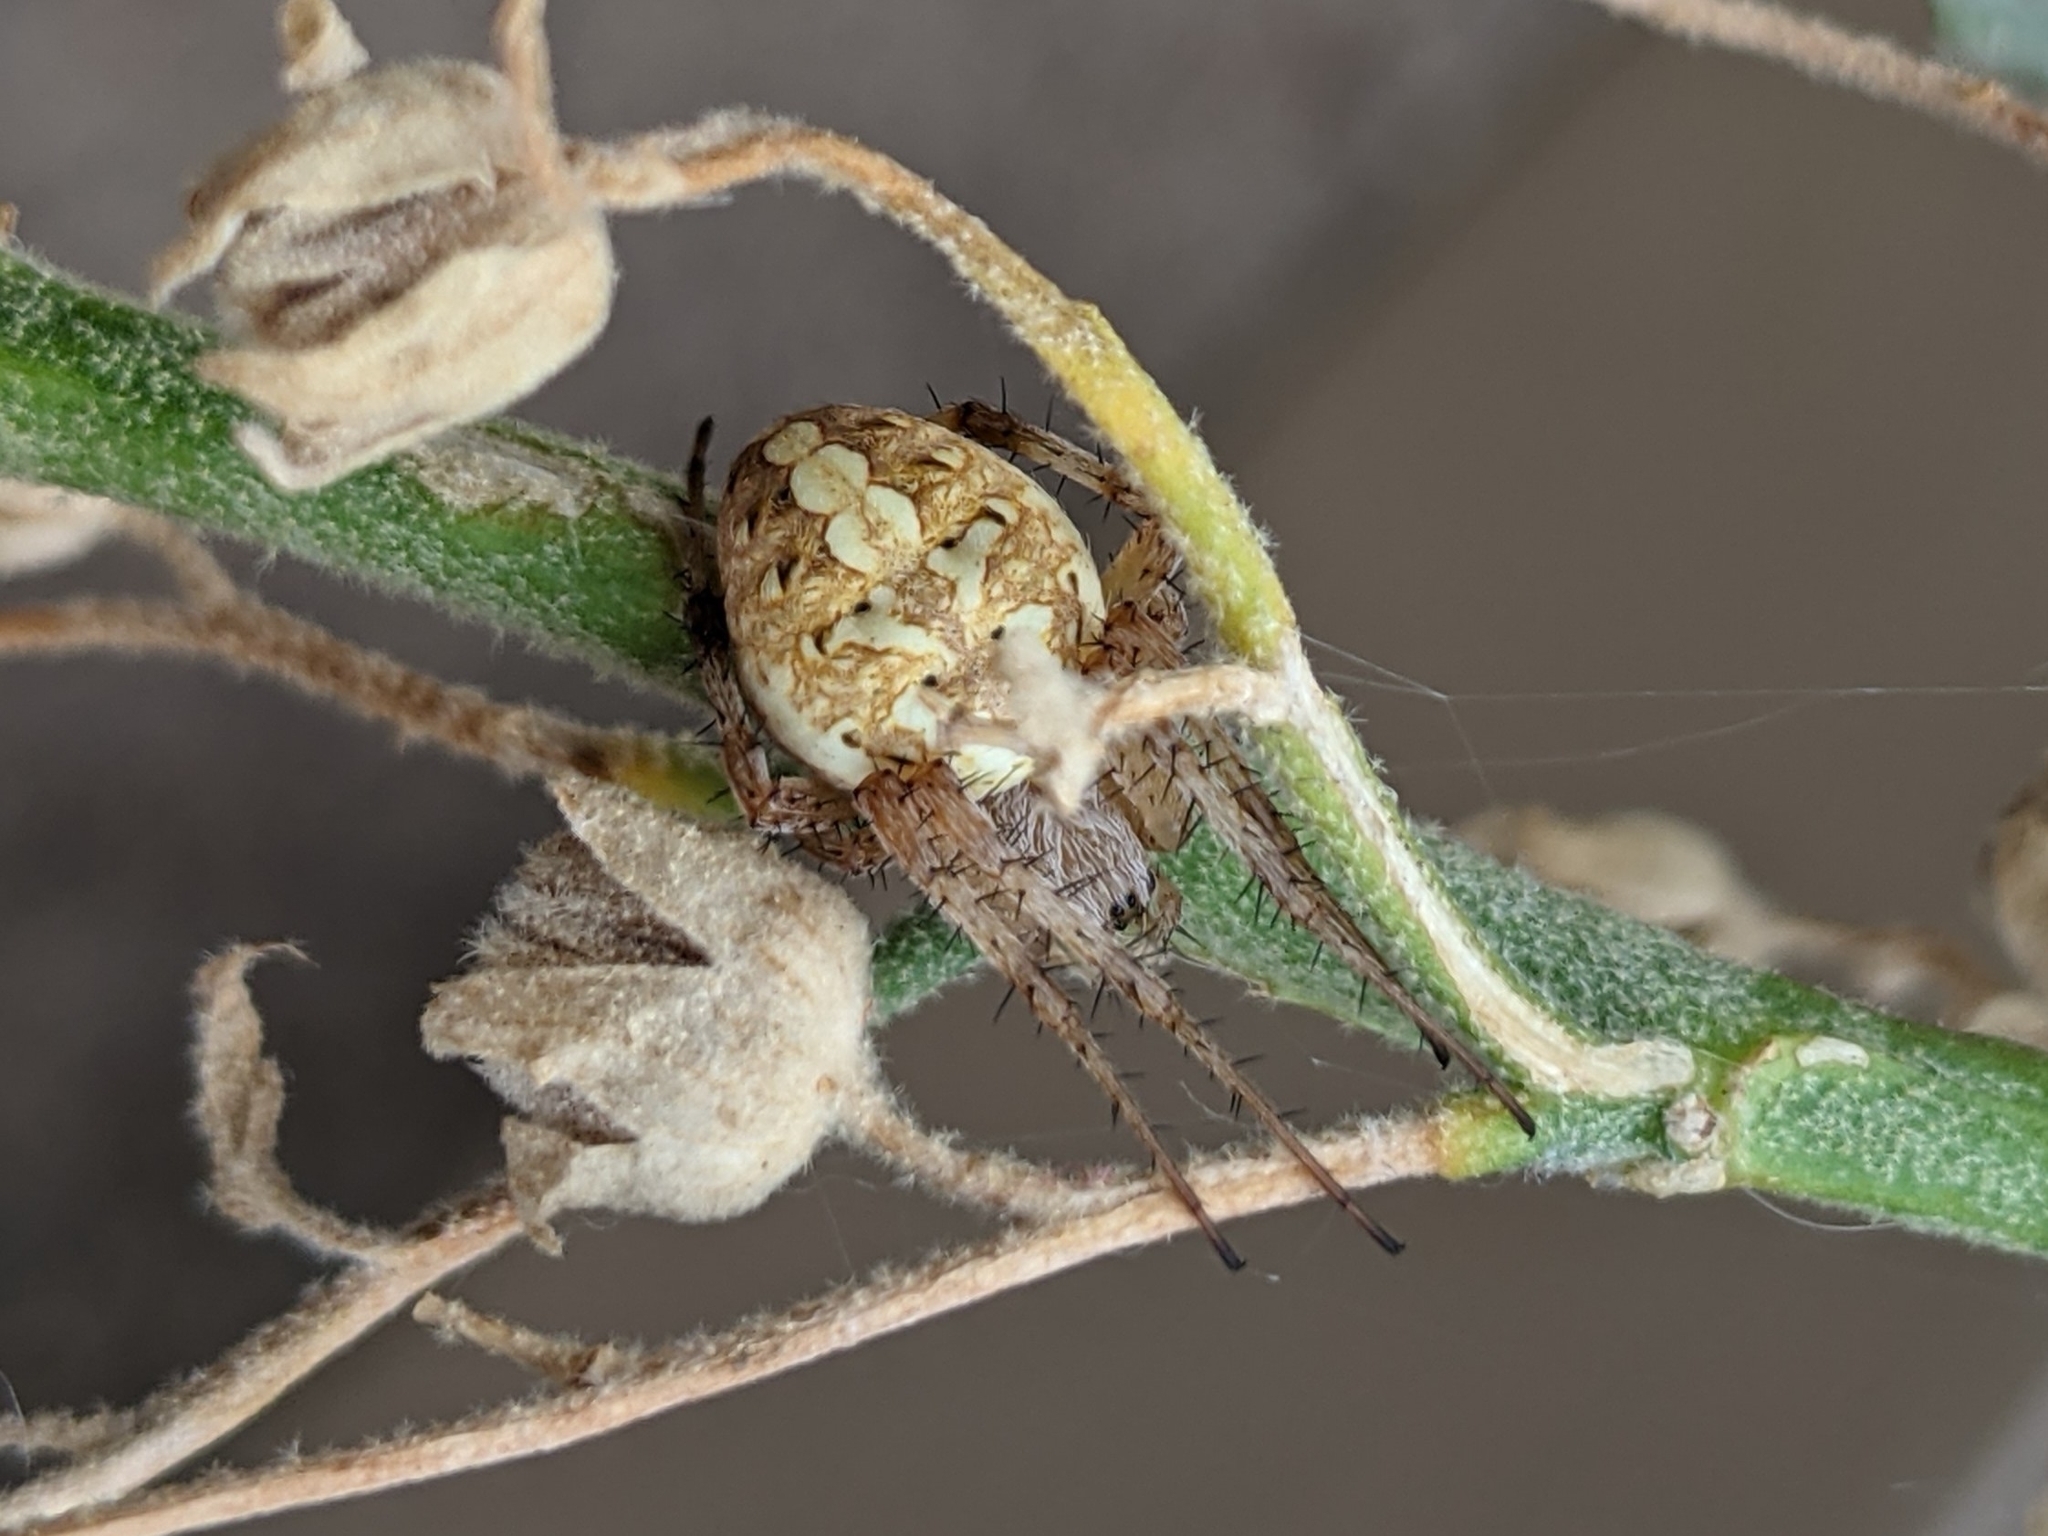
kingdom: Animalia
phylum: Arthropoda
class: Arachnida
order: Araneae
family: Araneidae
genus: Neoscona
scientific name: Neoscona oaxacensis
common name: Orb weavers
